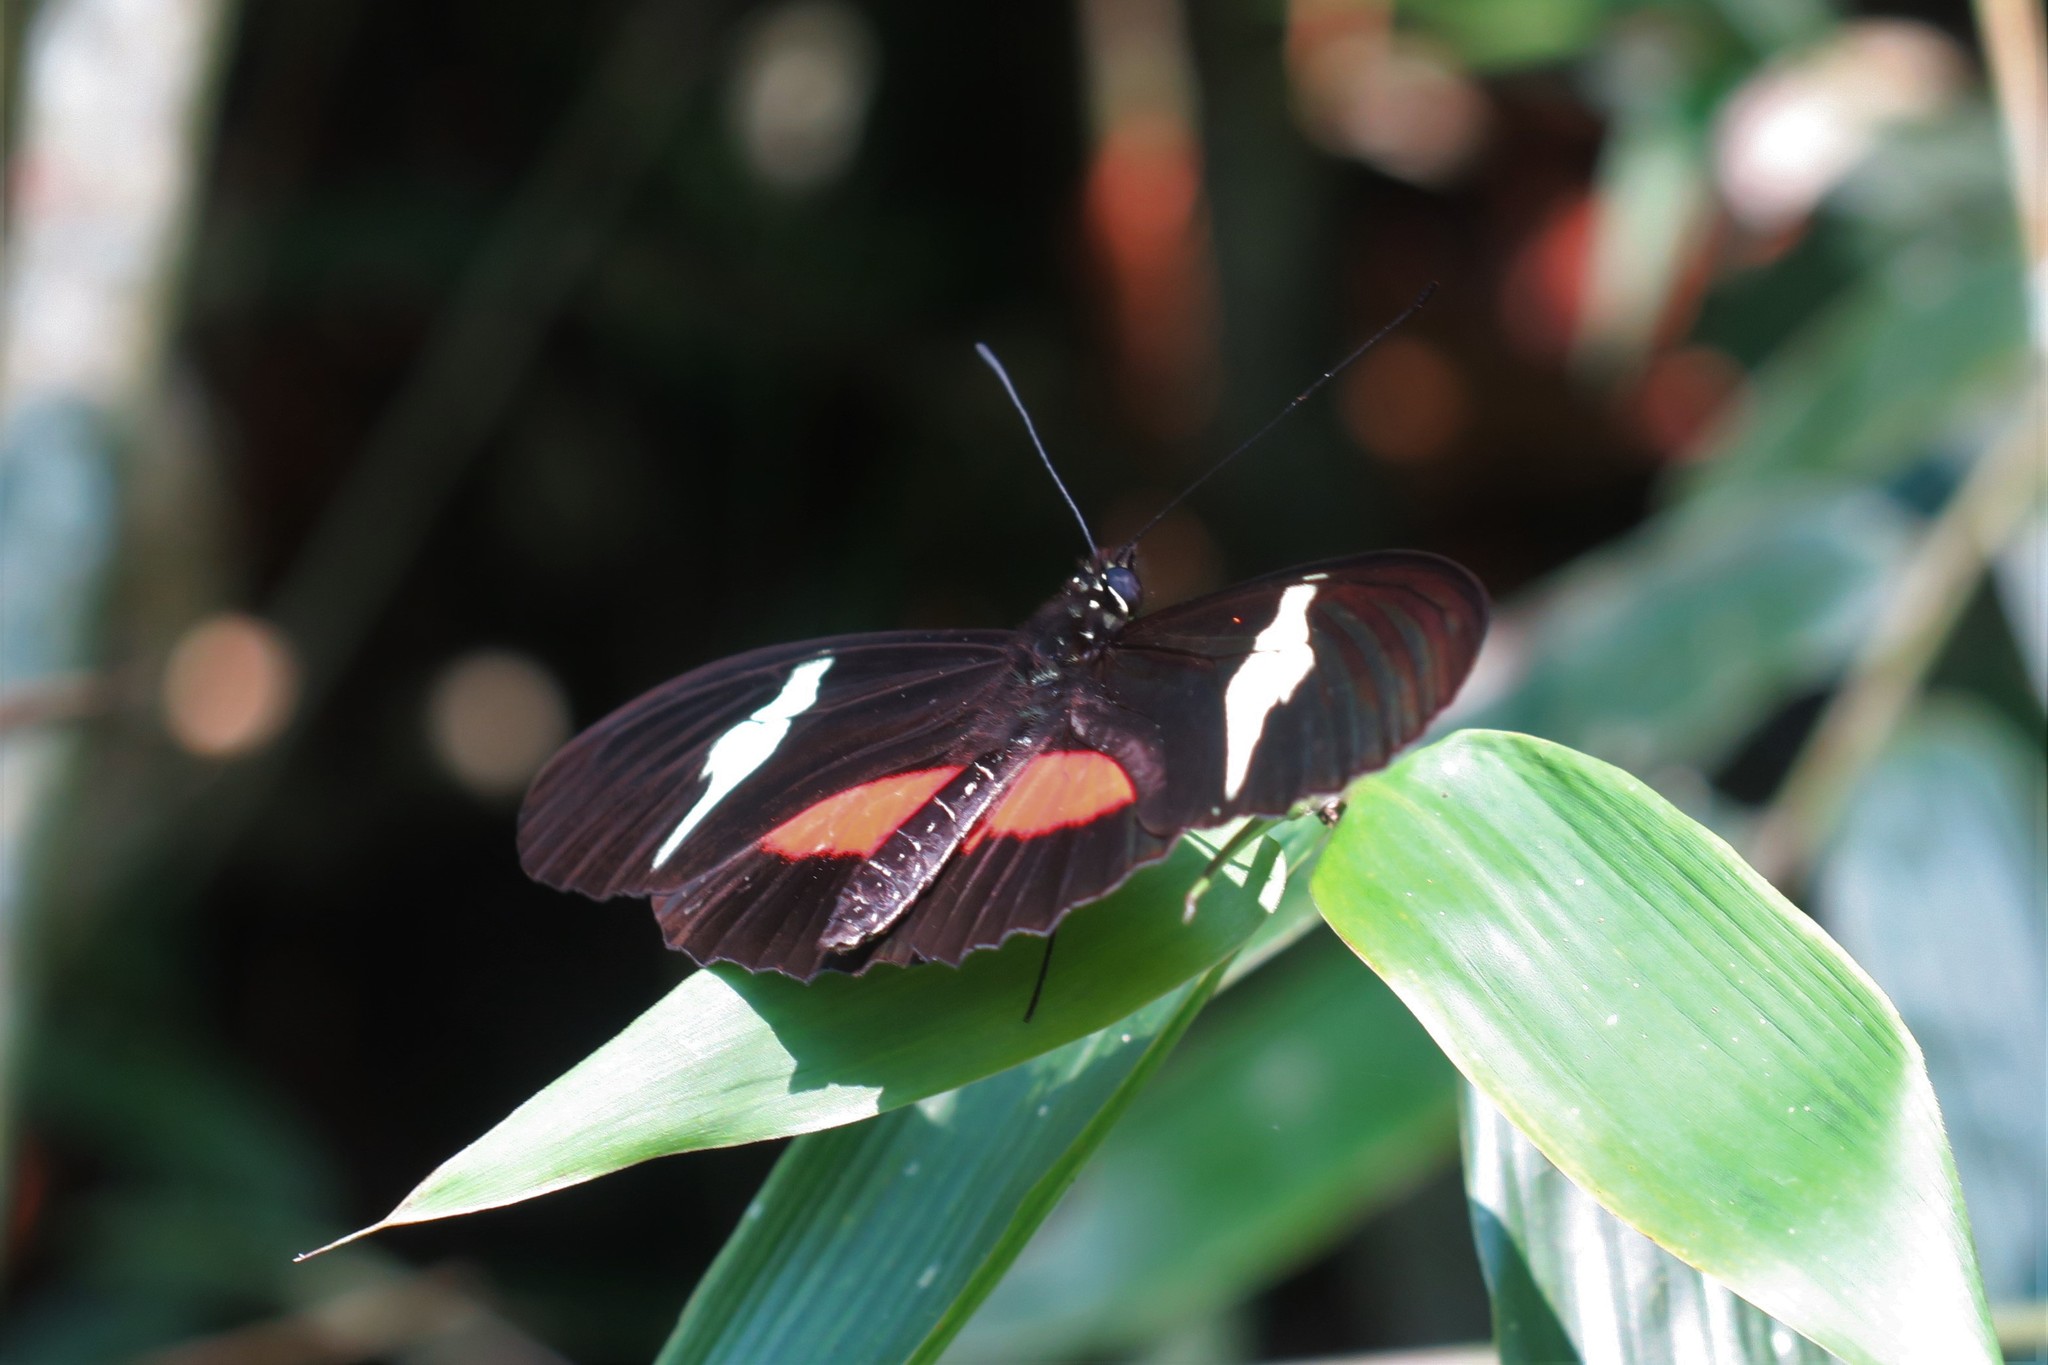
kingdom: Animalia
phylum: Arthropoda
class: Insecta
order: Lepidoptera
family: Nymphalidae
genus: Heliconius
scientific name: Heliconius clysonymus
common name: Clysonymus longwing
